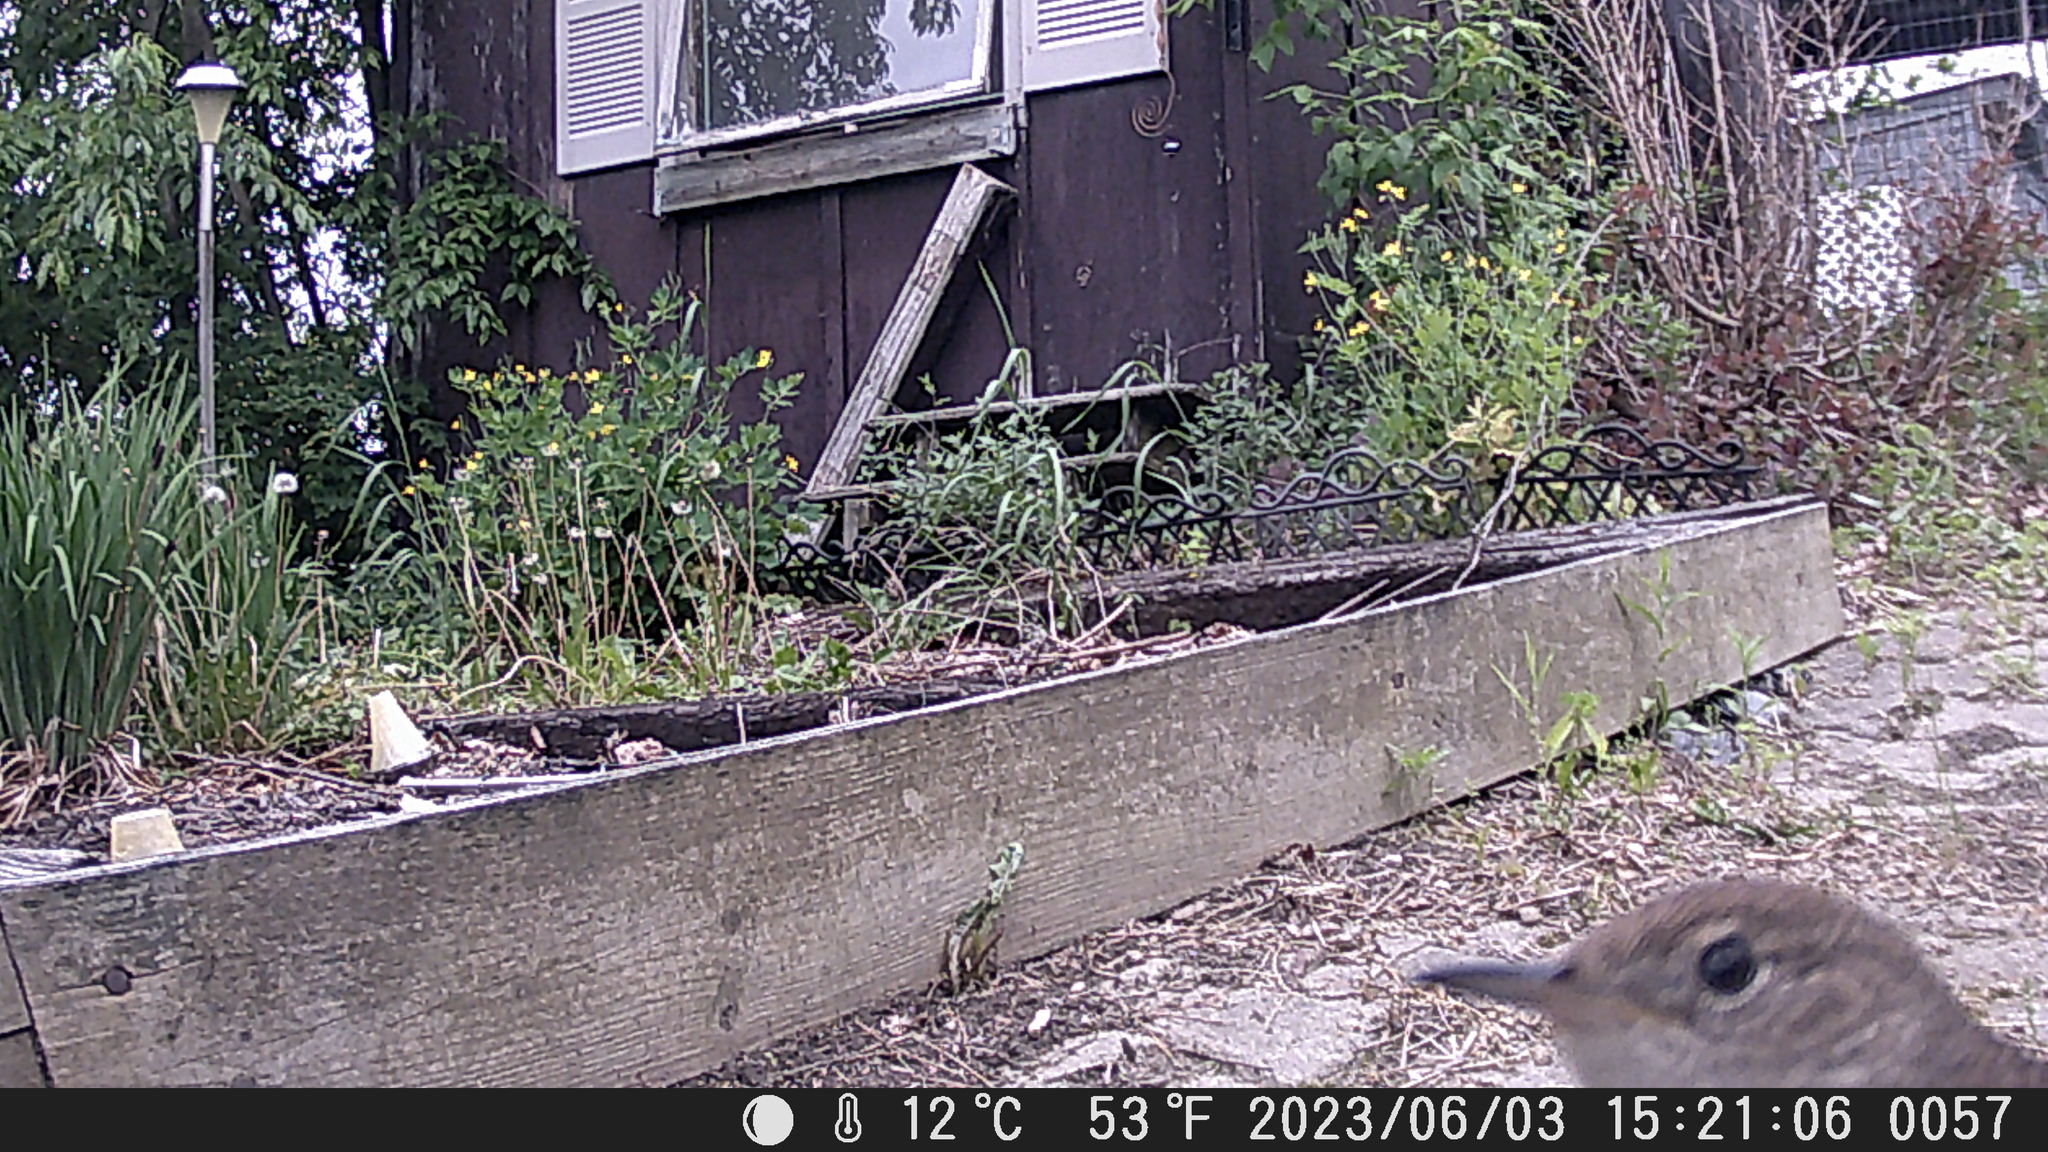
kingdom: Animalia
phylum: Chordata
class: Aves
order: Passeriformes
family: Troglodytidae
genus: Troglodytes
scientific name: Troglodytes aedon
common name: House wren
